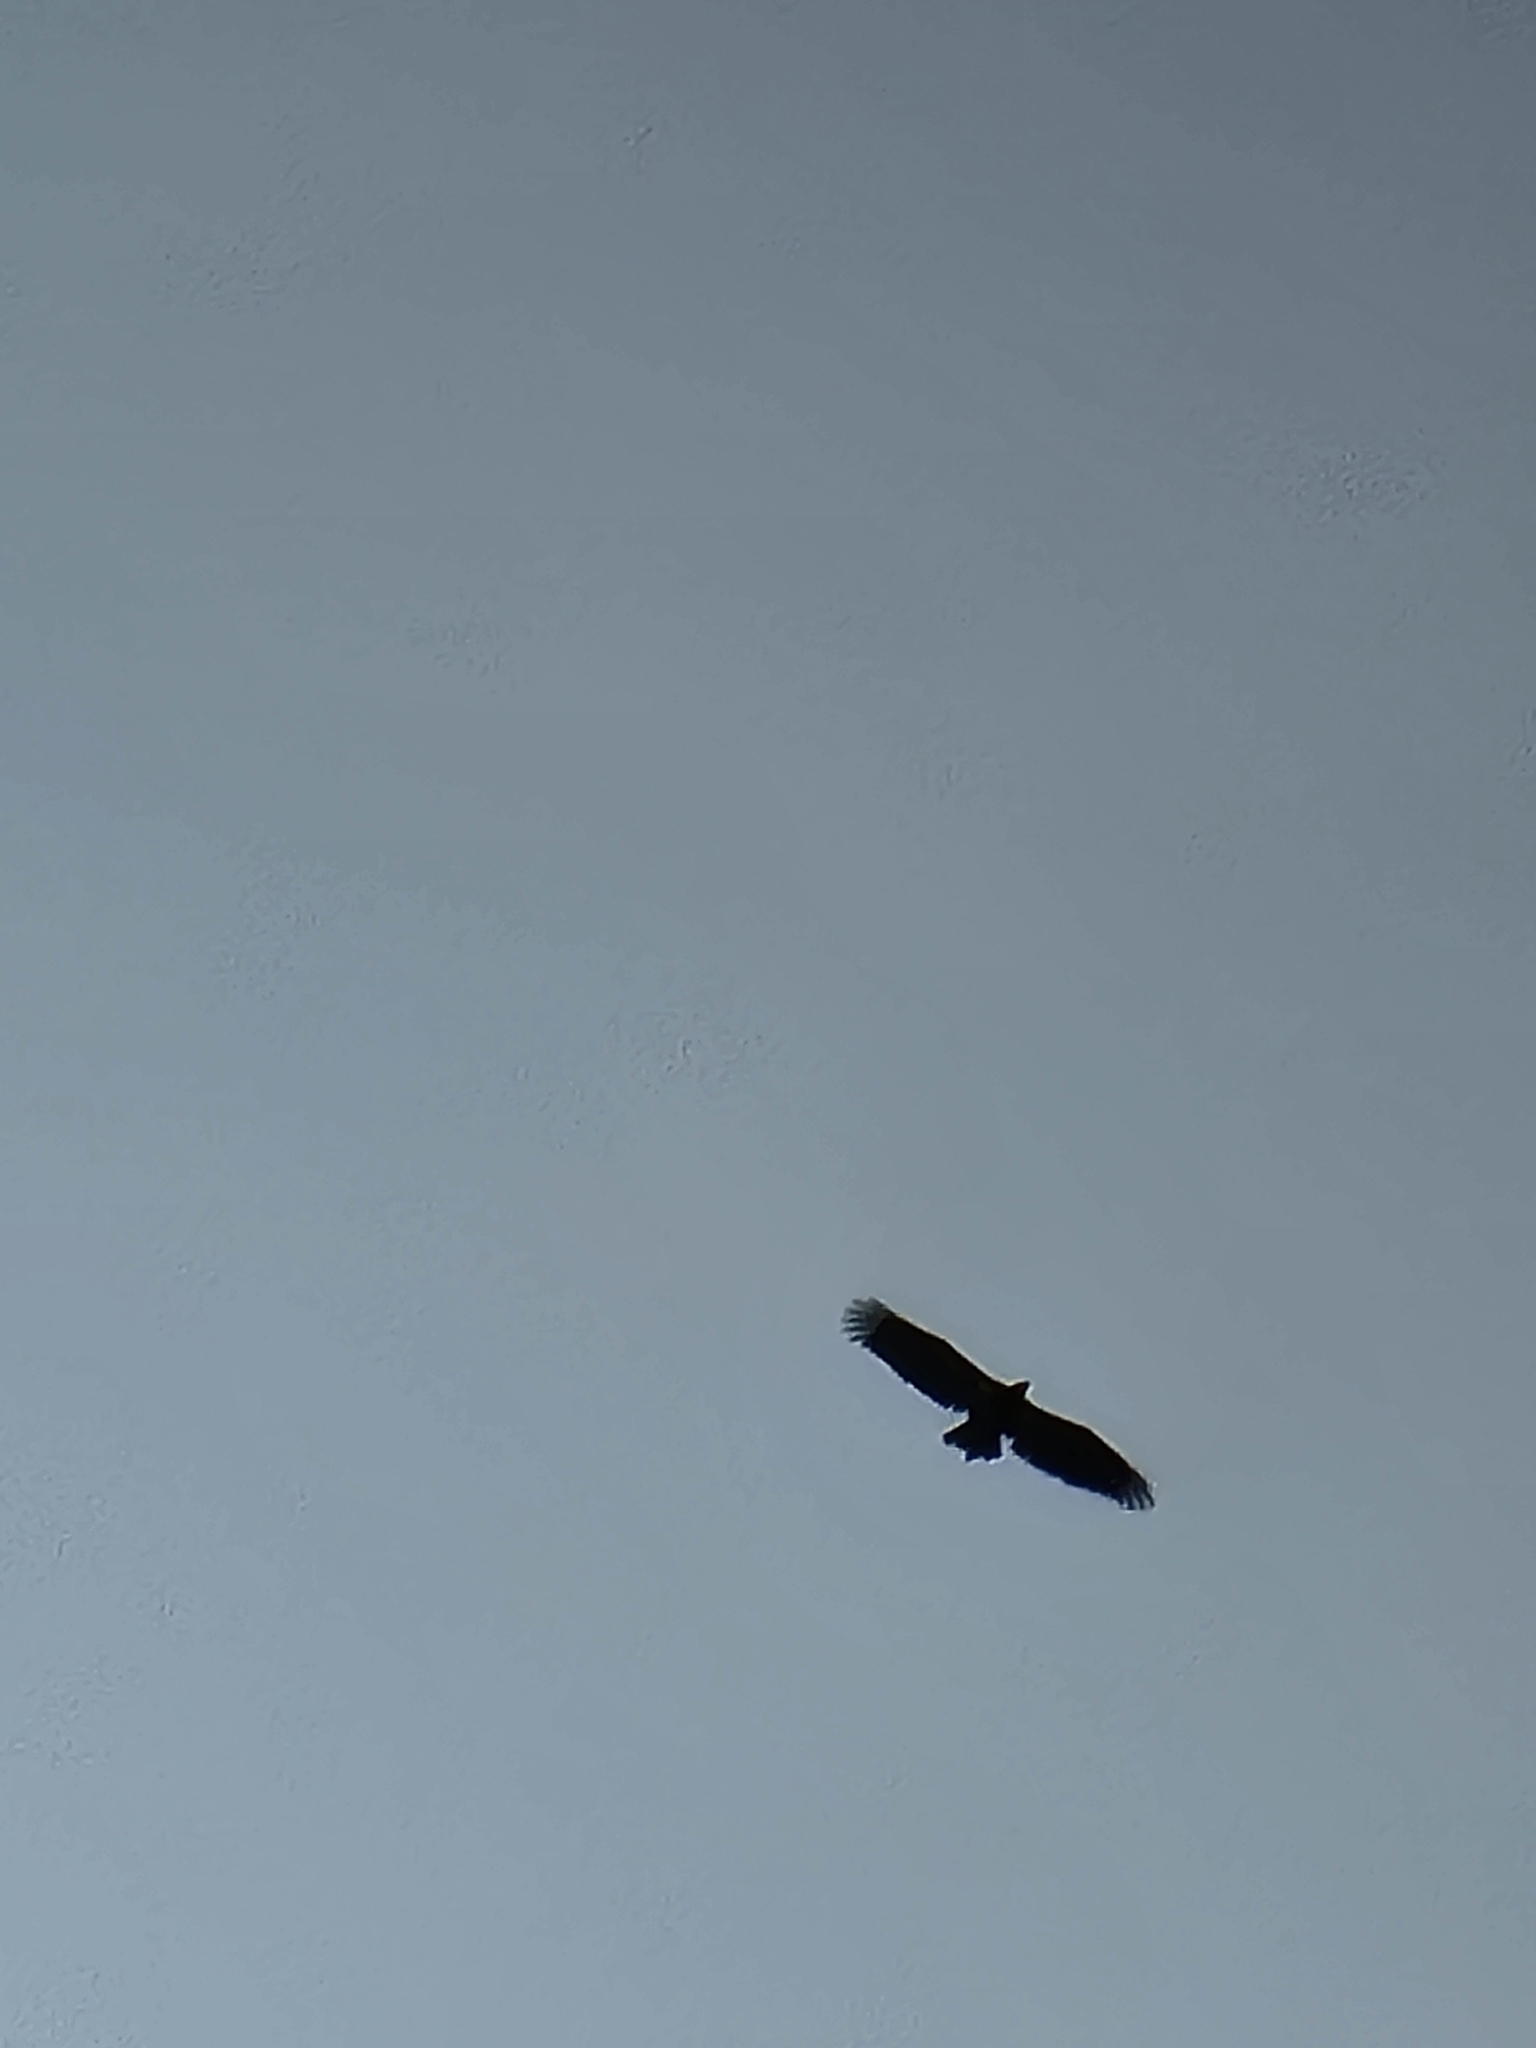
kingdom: Animalia
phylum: Chordata
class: Aves
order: Accipitriformes
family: Accipitridae
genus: Haliaeetus
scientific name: Haliaeetus leucocephalus
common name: Bald eagle
